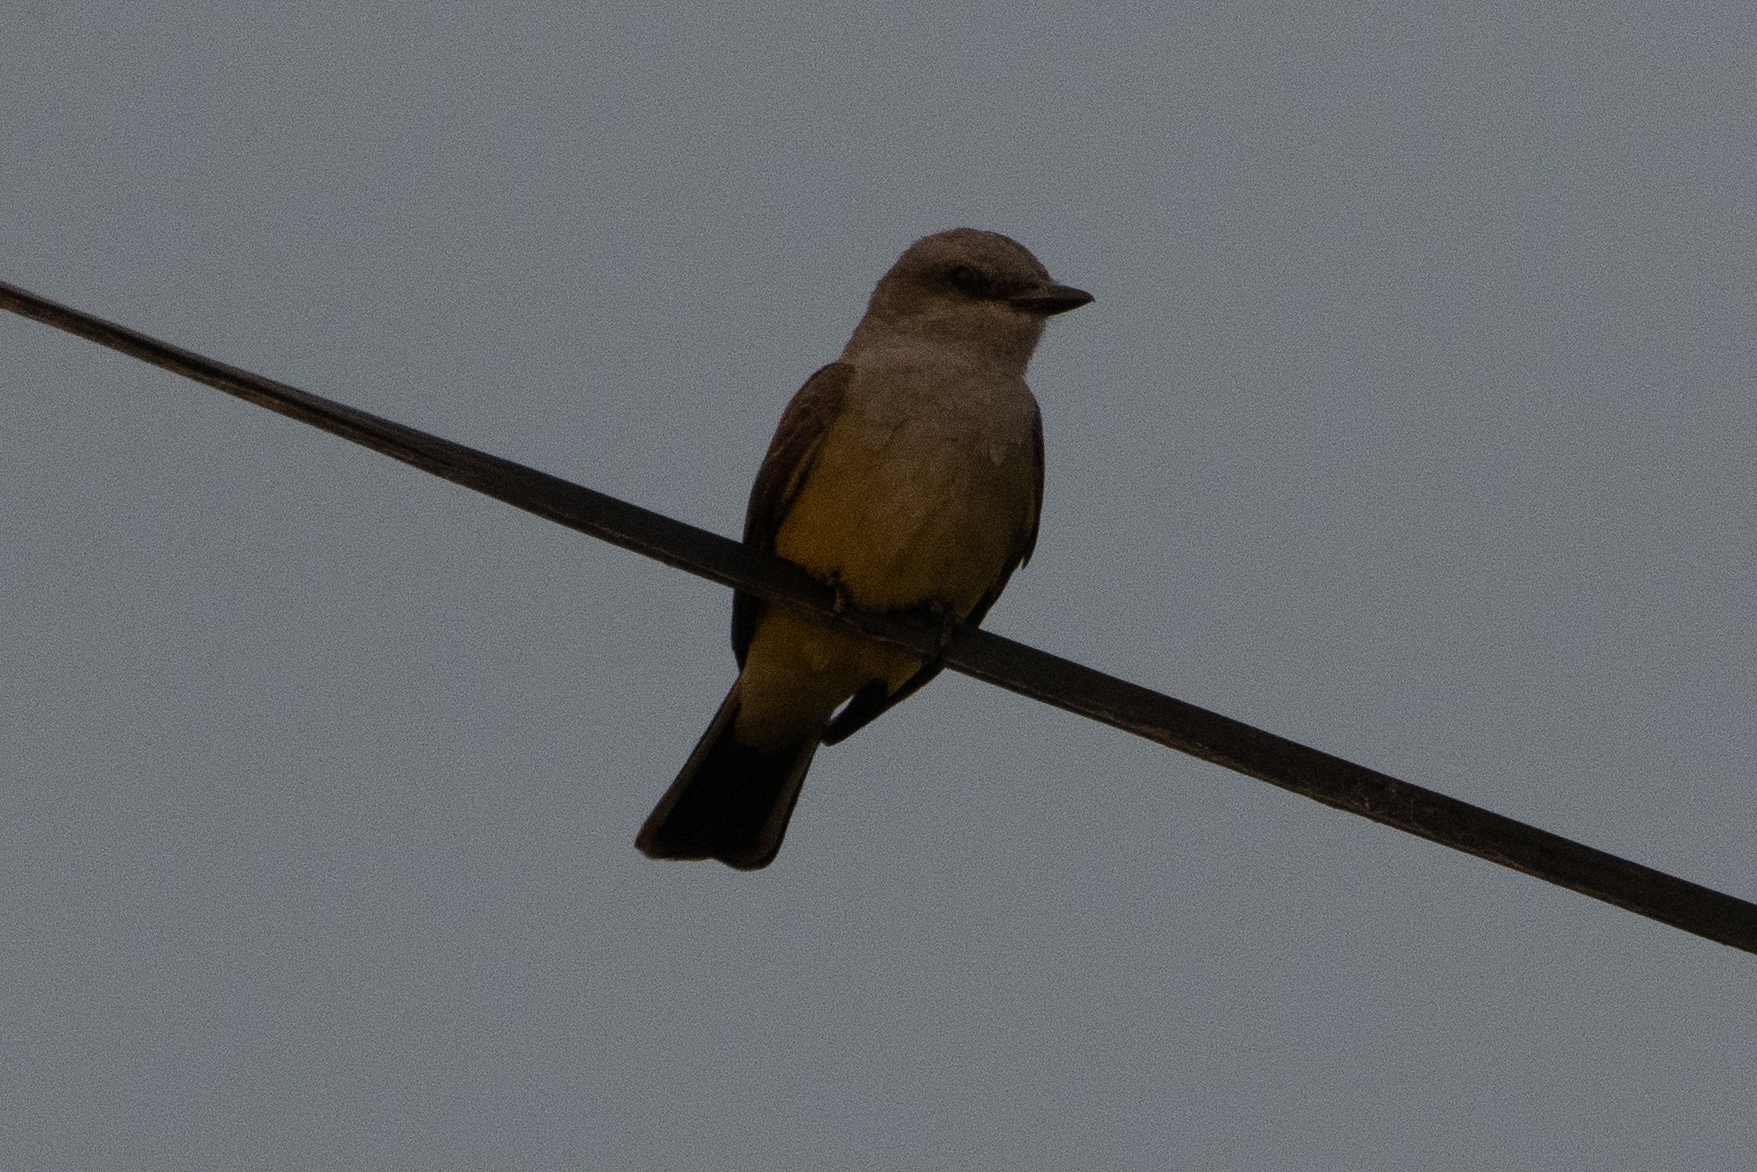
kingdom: Animalia
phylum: Chordata
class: Aves
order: Passeriformes
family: Tyrannidae
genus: Tyrannus
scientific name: Tyrannus verticalis
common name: Western kingbird
